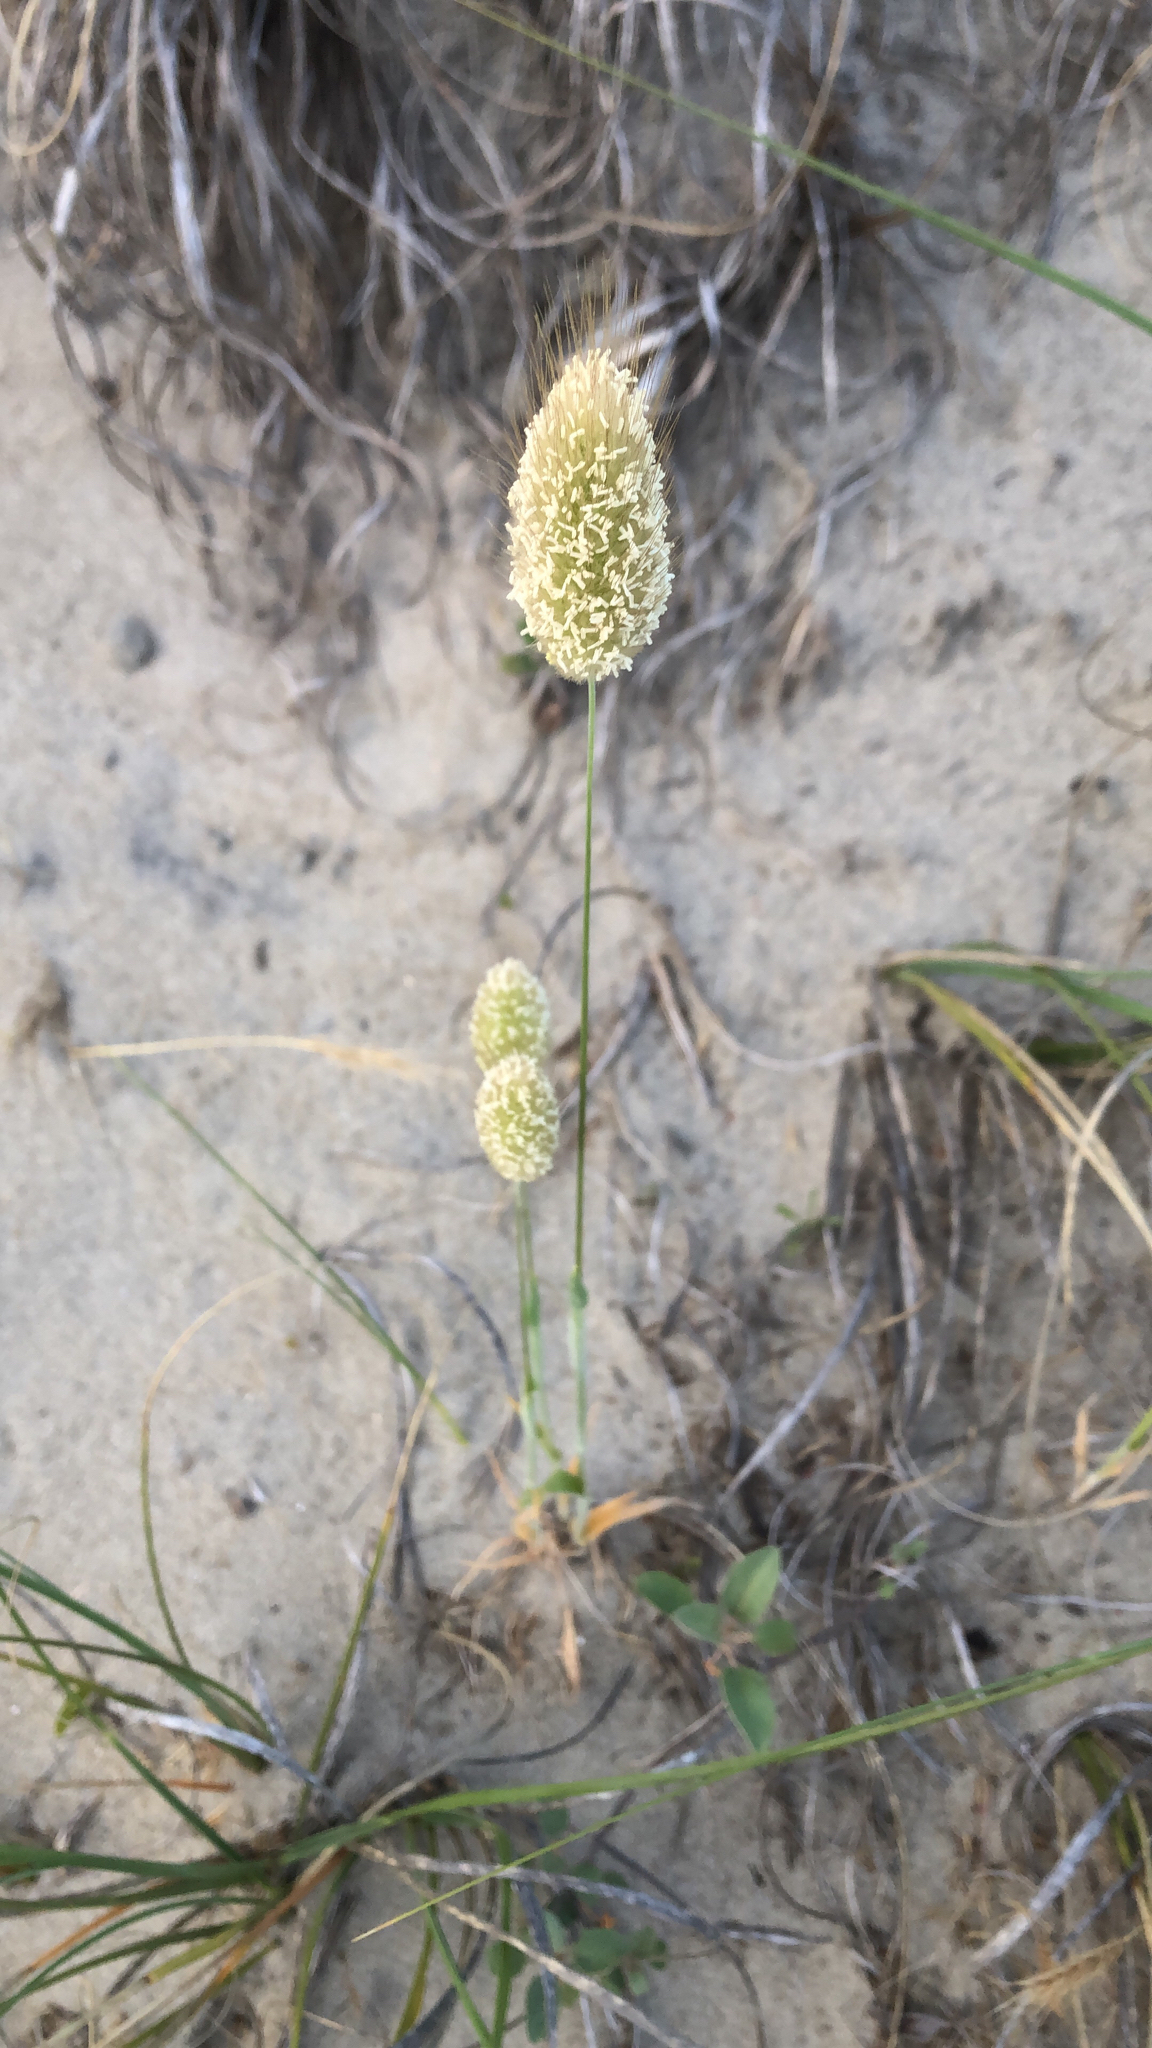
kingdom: Plantae
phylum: Tracheophyta
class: Liliopsida
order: Poales
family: Poaceae
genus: Lagurus
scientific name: Lagurus ovatus
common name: Hare's-tail
